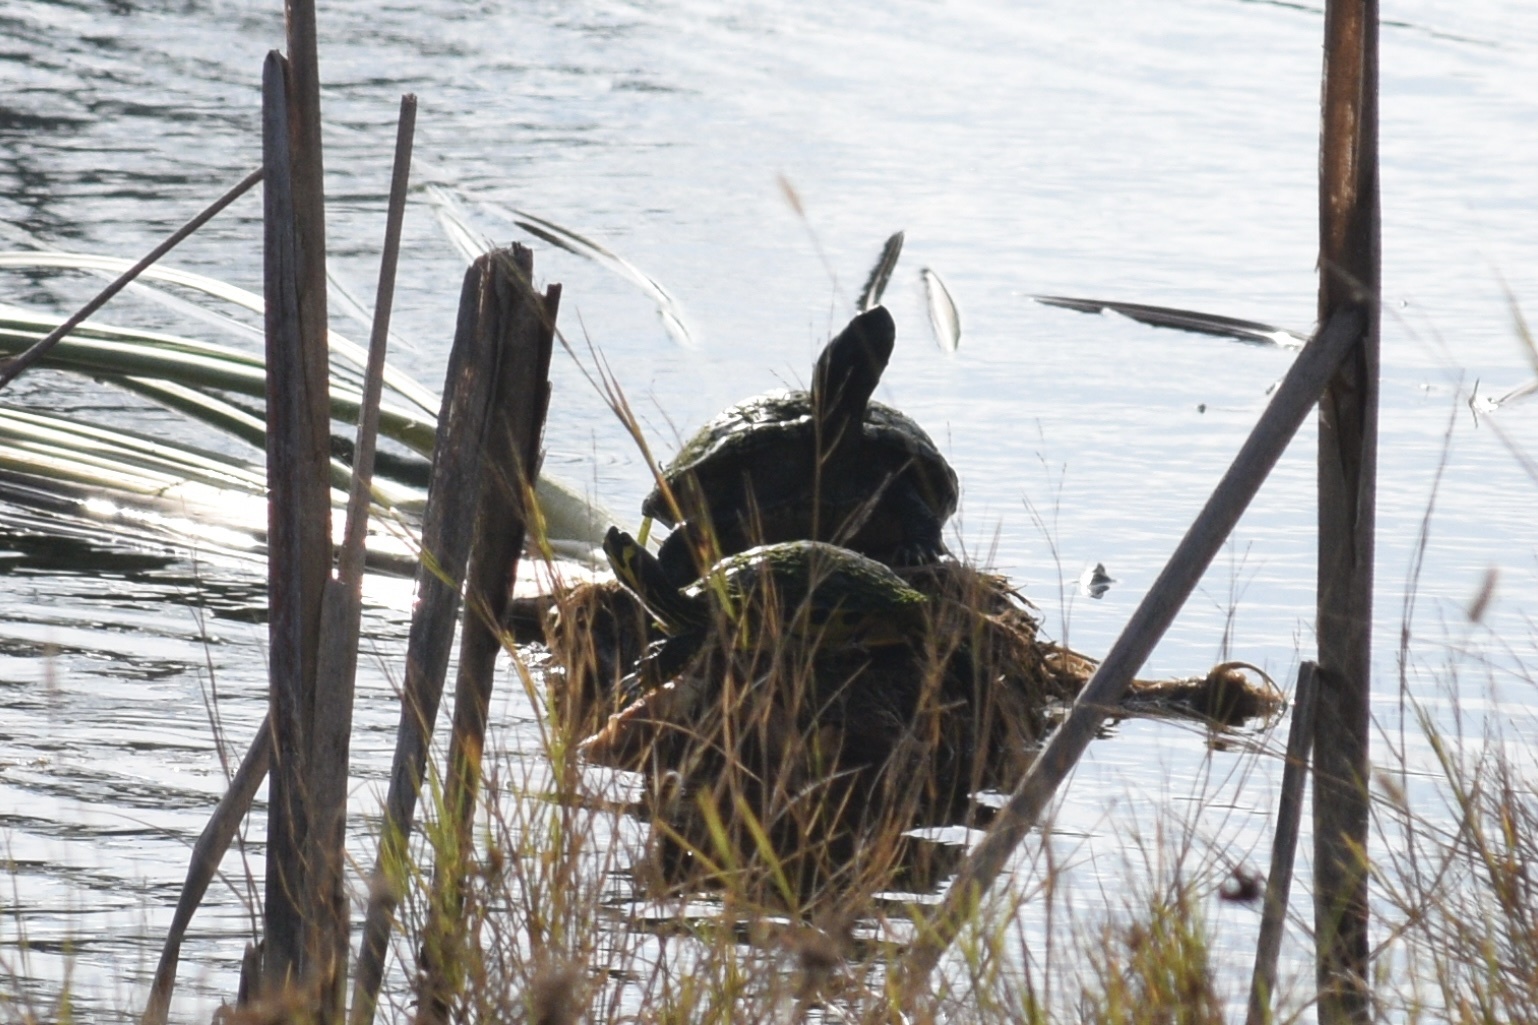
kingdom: Animalia
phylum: Chordata
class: Testudines
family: Emydidae
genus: Trachemys
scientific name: Trachemys scripta
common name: Slider
